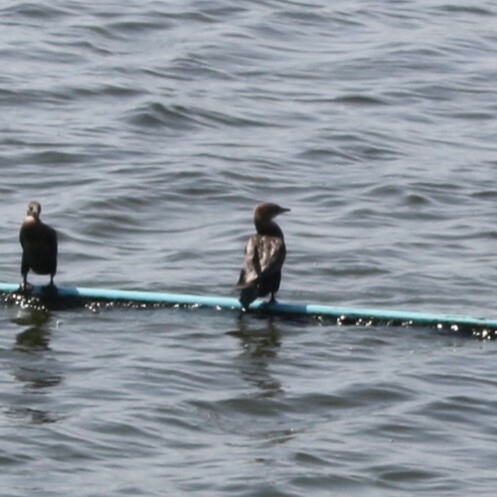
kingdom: Animalia
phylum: Chordata
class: Aves
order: Suliformes
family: Phalacrocoracidae
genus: Microcarbo
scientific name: Microcarbo pygmaeus
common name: Pygmy cormorant
